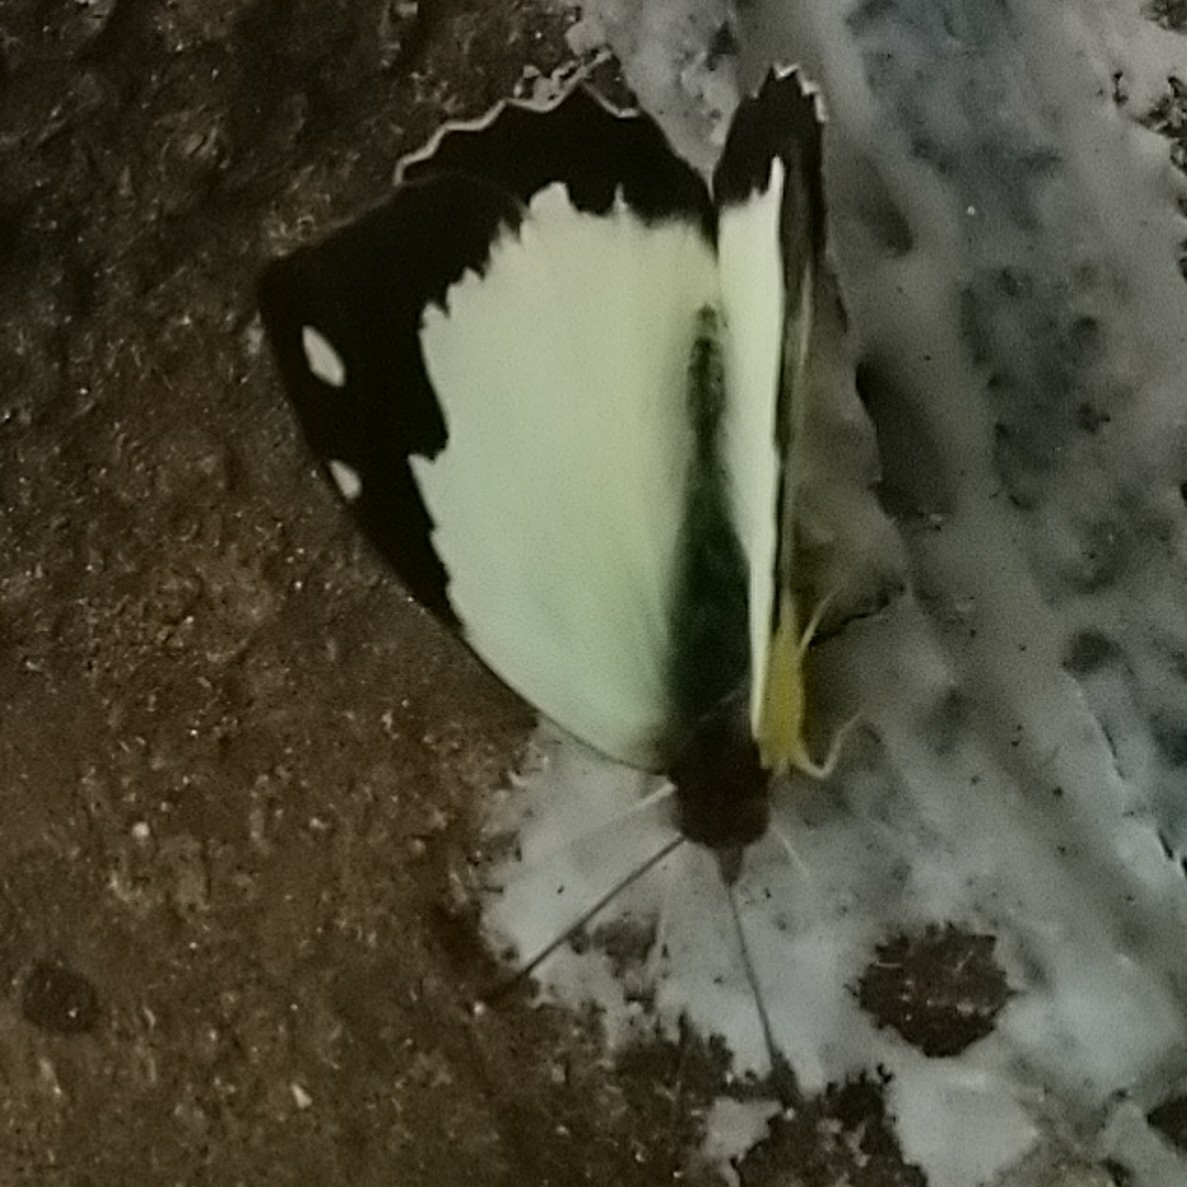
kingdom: Animalia
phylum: Arthropoda
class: Insecta
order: Lepidoptera
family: Pieridae
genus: Eronia
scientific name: Eronia cleodora
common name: Vine-leaf vagrant
